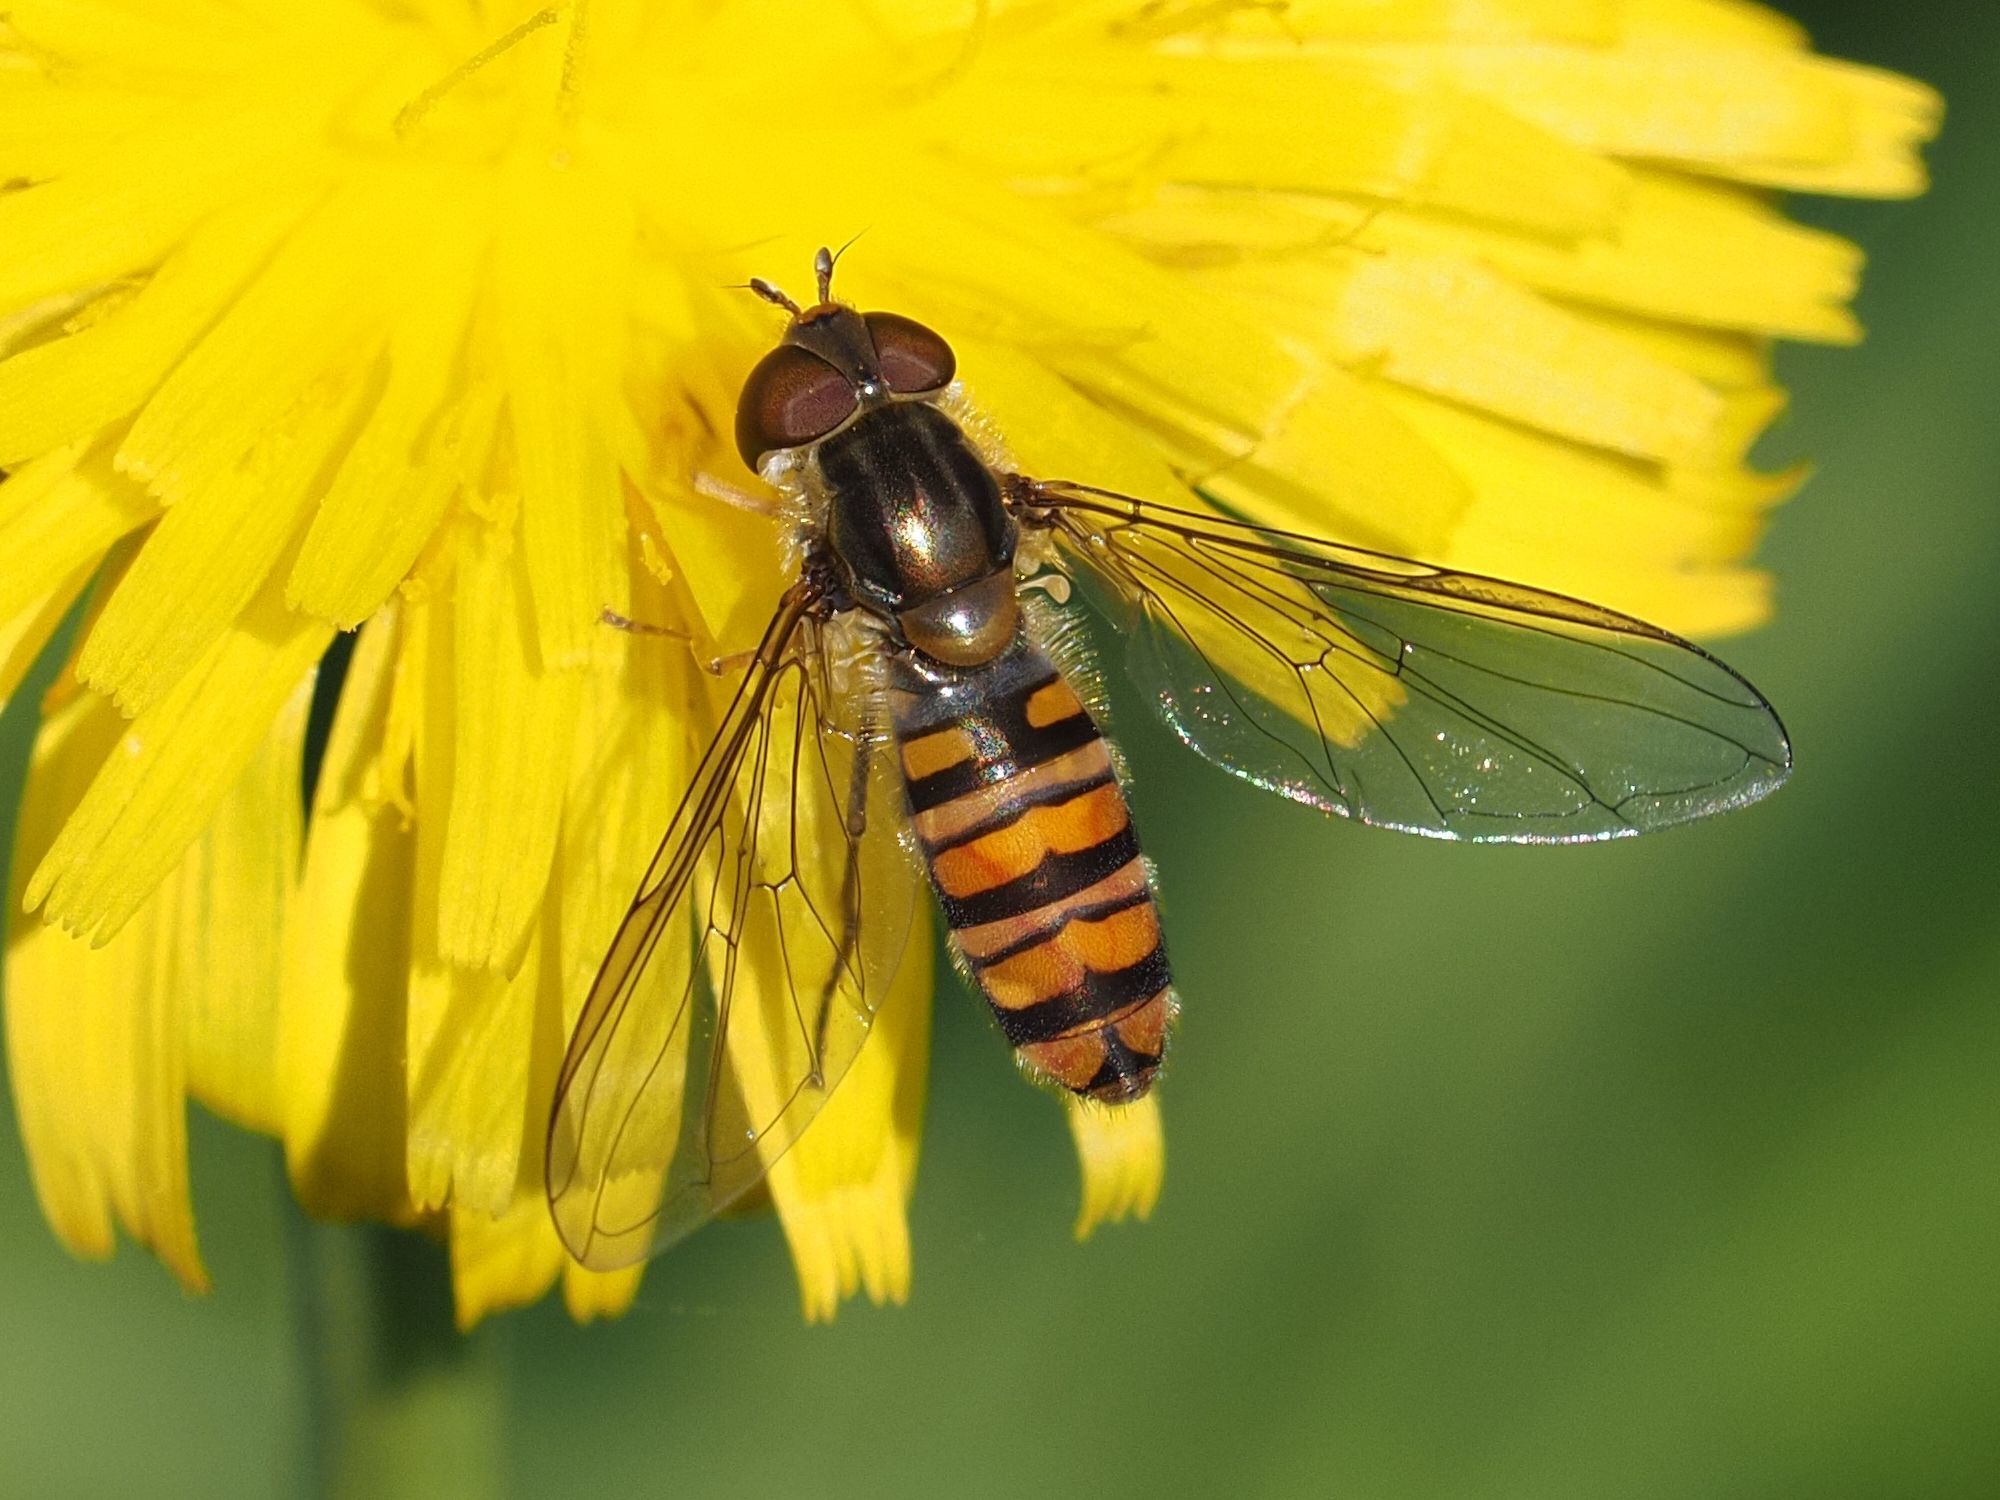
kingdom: Animalia
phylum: Arthropoda
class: Insecta
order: Diptera
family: Syrphidae
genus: Episyrphus
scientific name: Episyrphus balteatus
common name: Marmalade hoverfly
